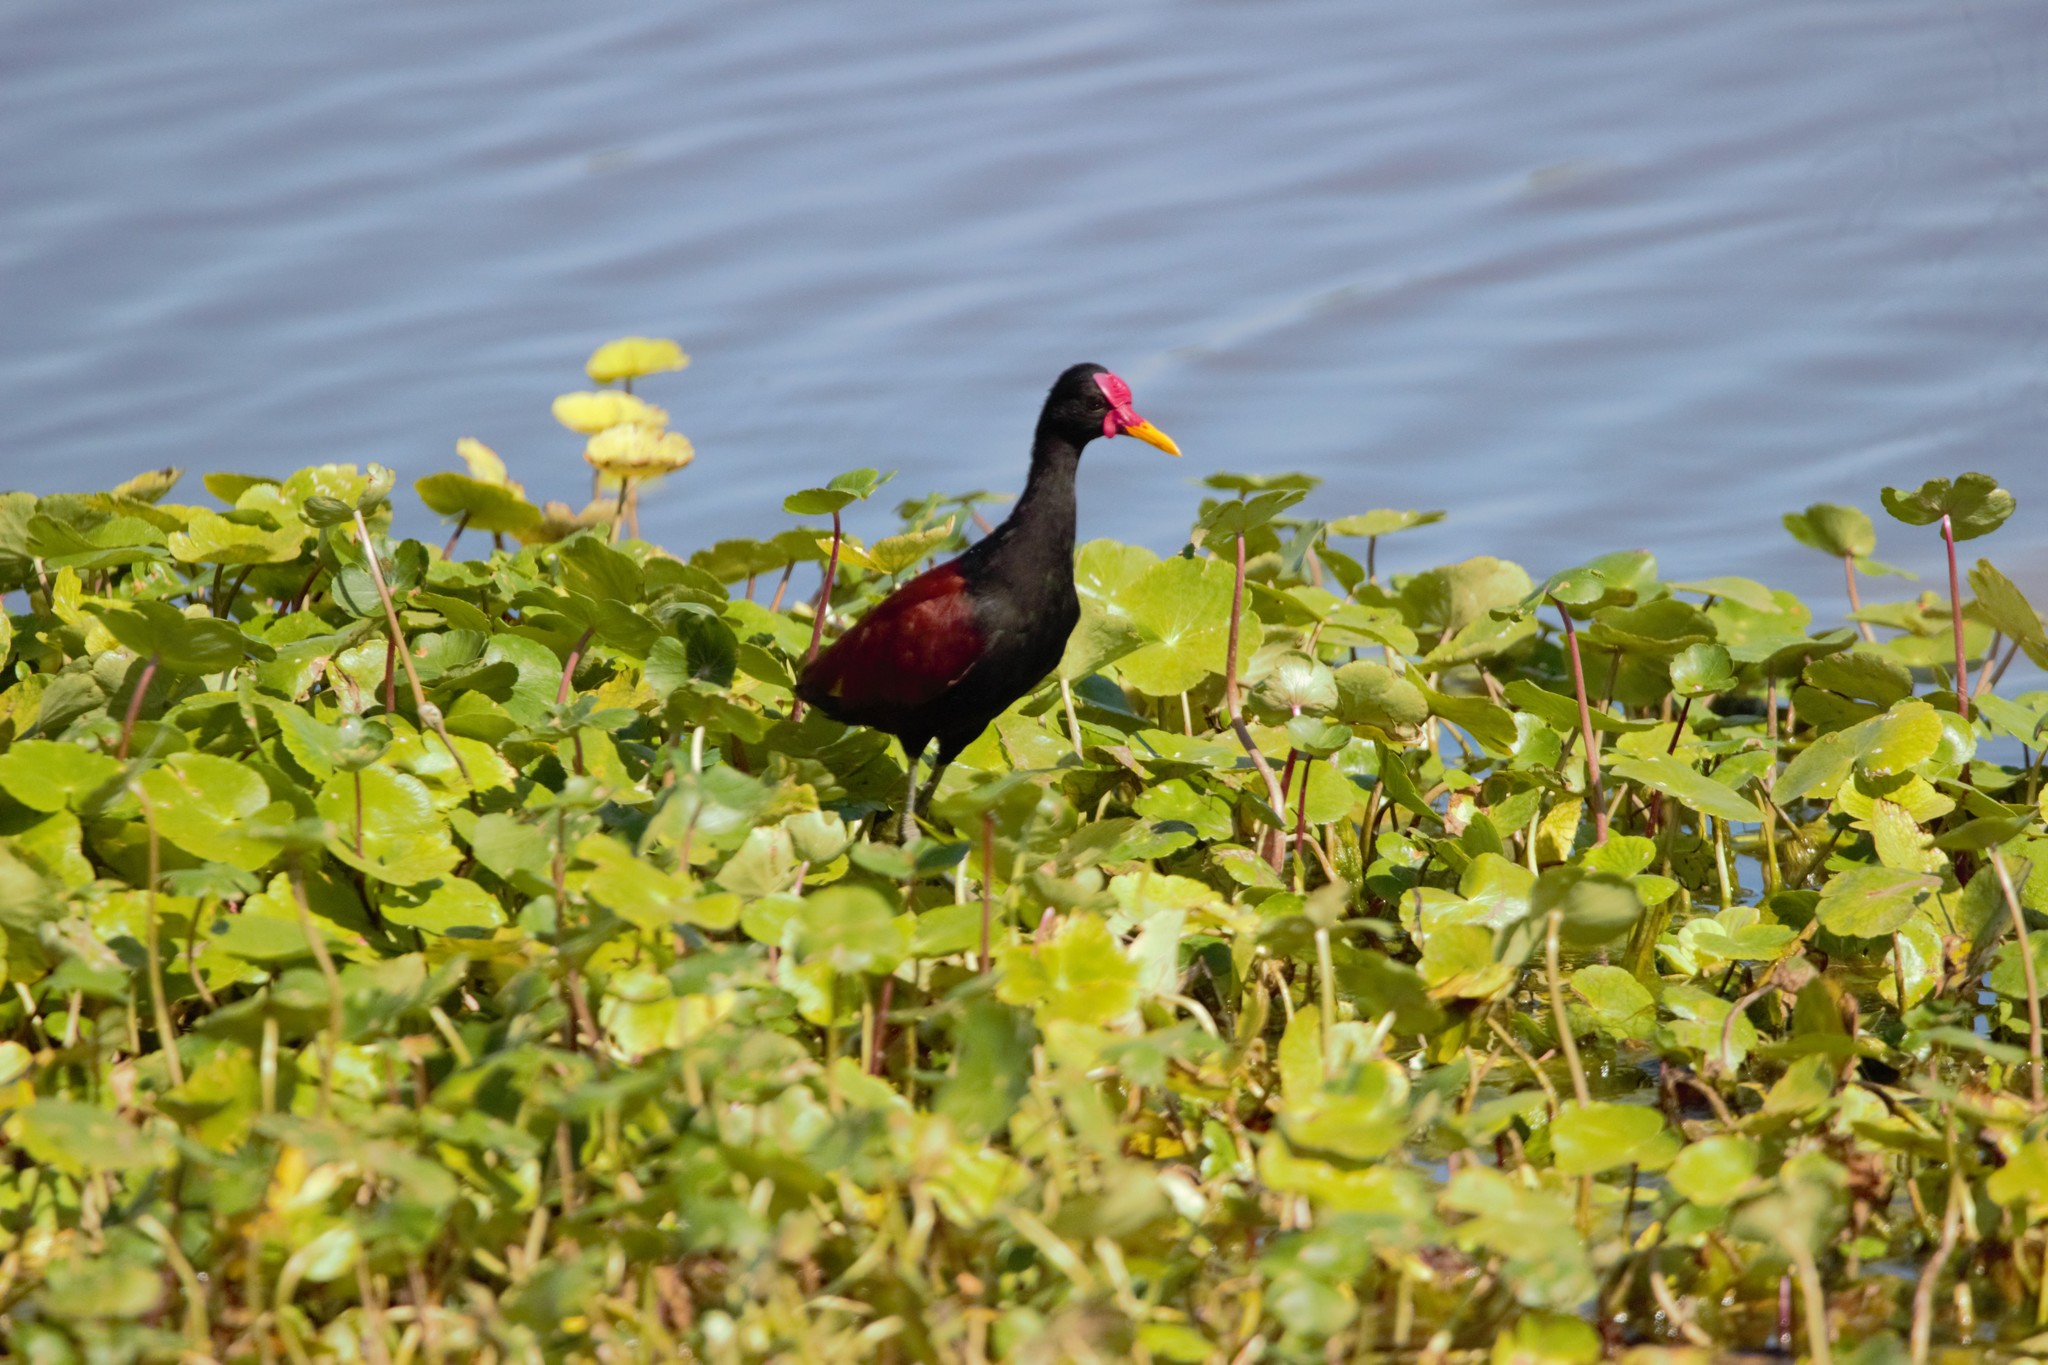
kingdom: Animalia
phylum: Chordata
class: Aves
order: Charadriiformes
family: Jacanidae
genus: Jacana
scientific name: Jacana jacana
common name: Wattled jacana
